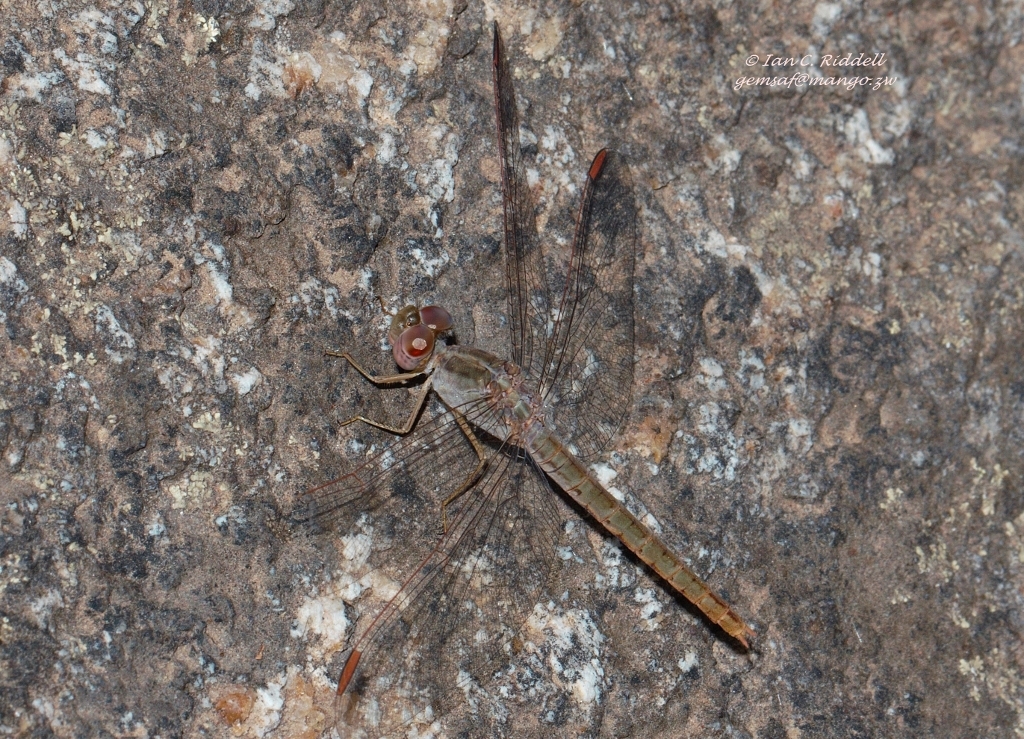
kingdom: Animalia
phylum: Arthropoda
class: Insecta
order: Odonata
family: Libellulidae
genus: Crocothemis
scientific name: Crocothemis divisa
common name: Divisa scarlet
